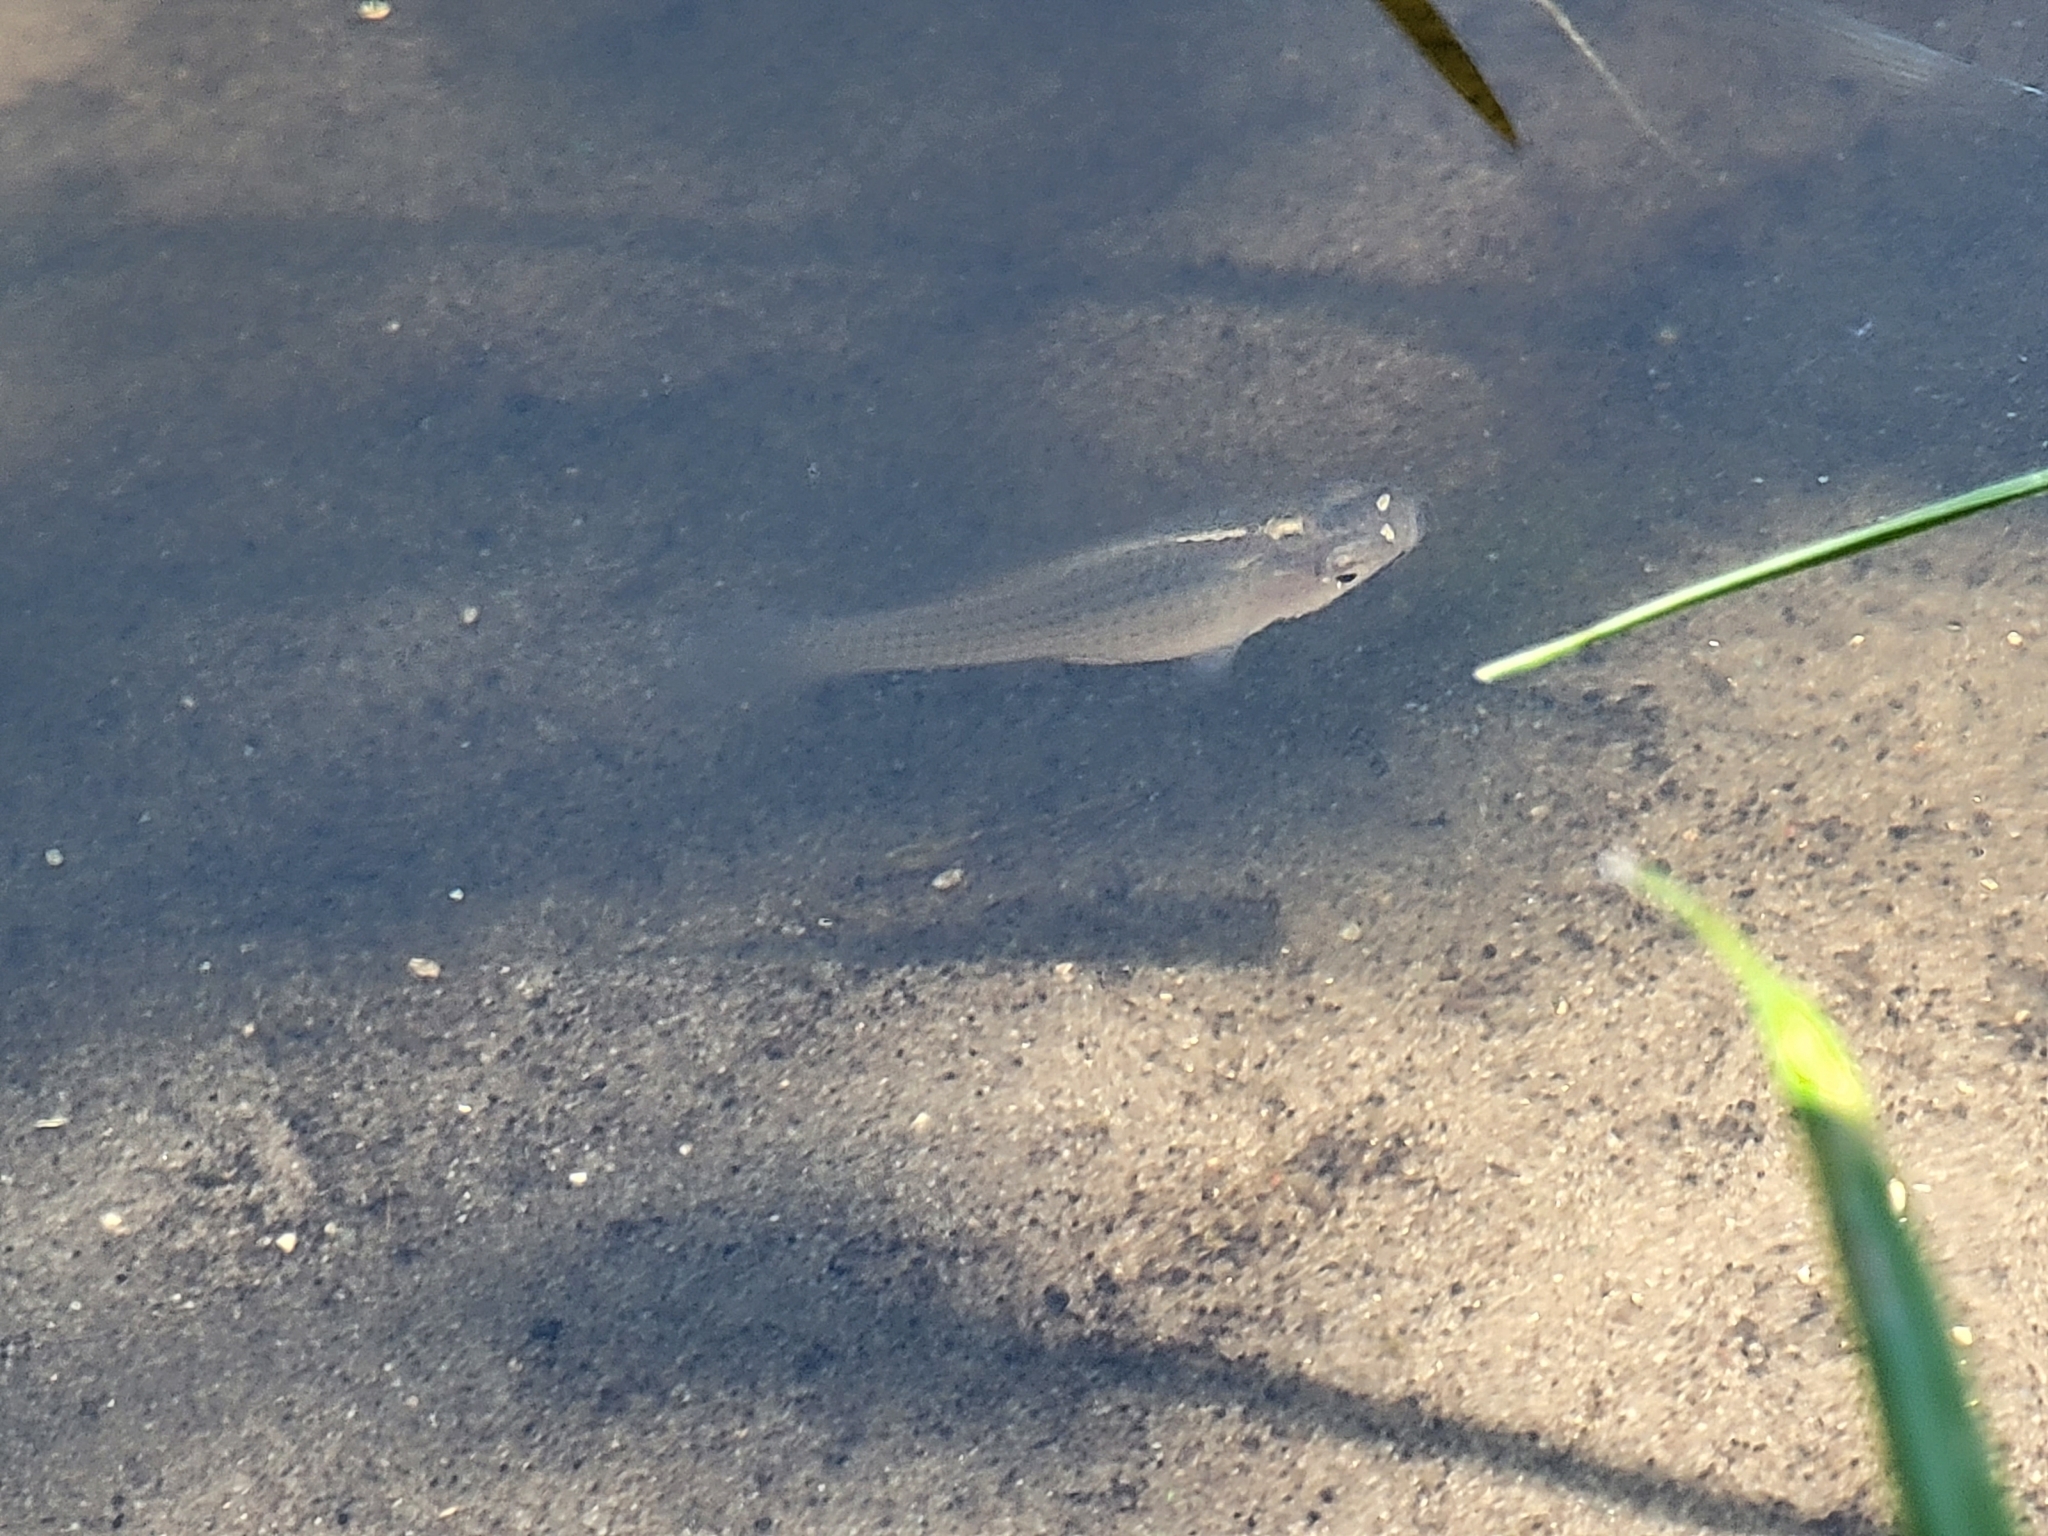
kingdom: Animalia
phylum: Chordata
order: Cyprinodontiformes
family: Poeciliidae
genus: Poecilia
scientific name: Poecilia latipinna
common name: Sailfin molly
